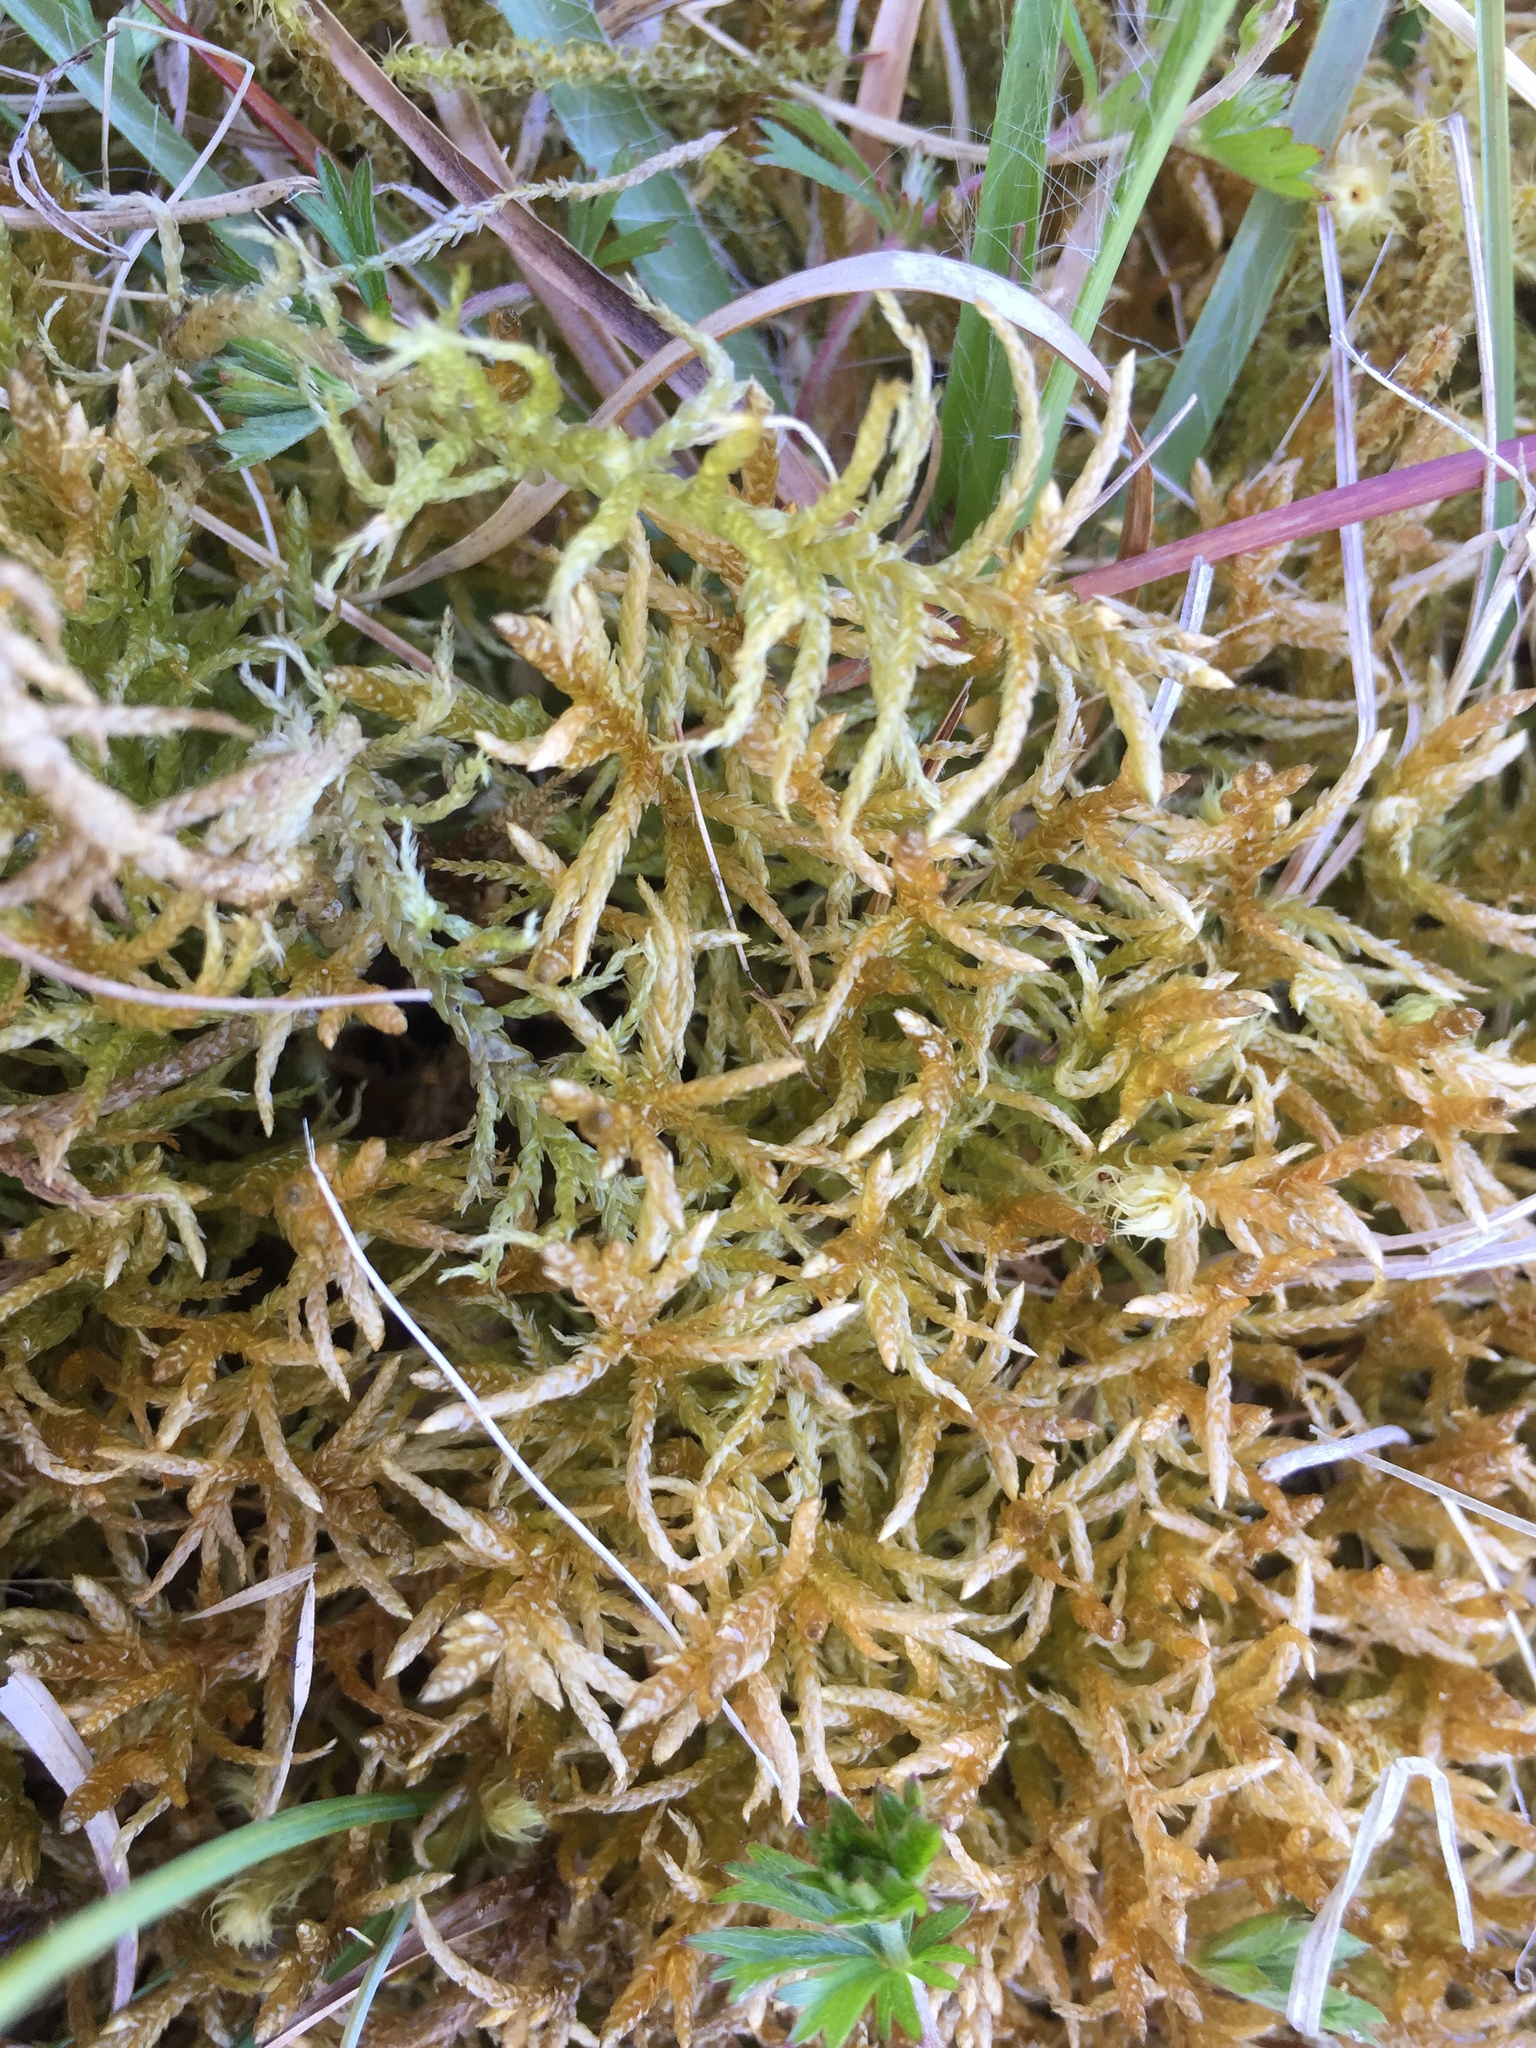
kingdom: Plantae
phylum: Bryophyta
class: Bryopsida
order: Hypnales
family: Hylocomiaceae
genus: Pleurozium
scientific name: Pleurozium schreberi
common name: Red-stemmed feather moss
